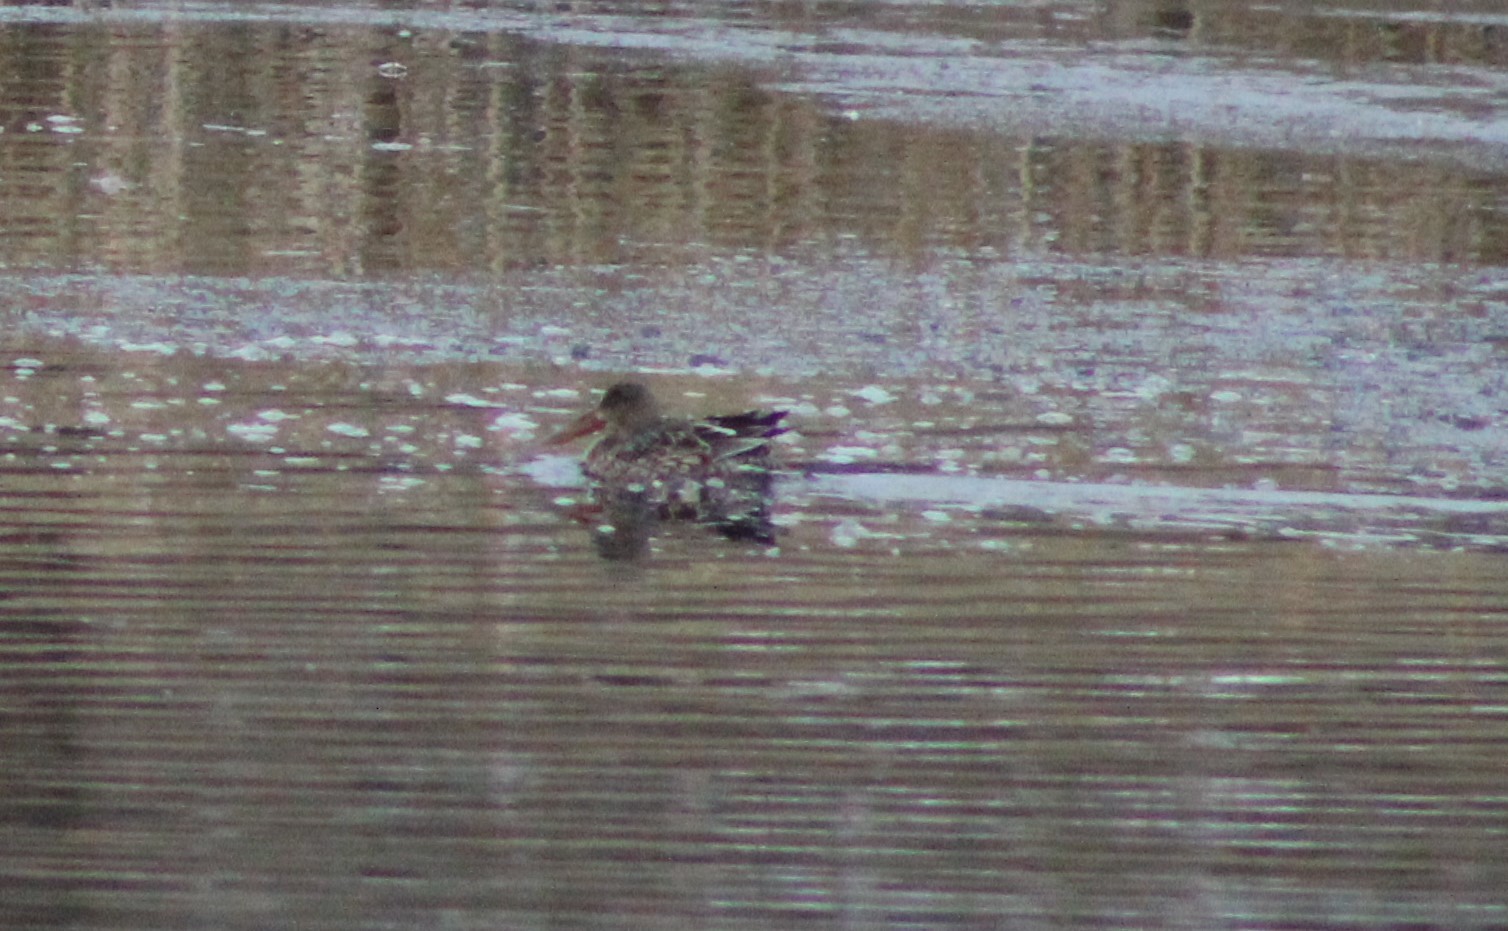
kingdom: Animalia
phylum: Chordata
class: Aves
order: Anseriformes
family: Anatidae
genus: Spatula
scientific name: Spatula clypeata
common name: Northern shoveler
